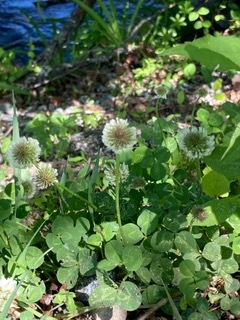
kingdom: Plantae
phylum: Tracheophyta
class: Magnoliopsida
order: Fabales
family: Fabaceae
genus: Trifolium
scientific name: Trifolium repens
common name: White clover
